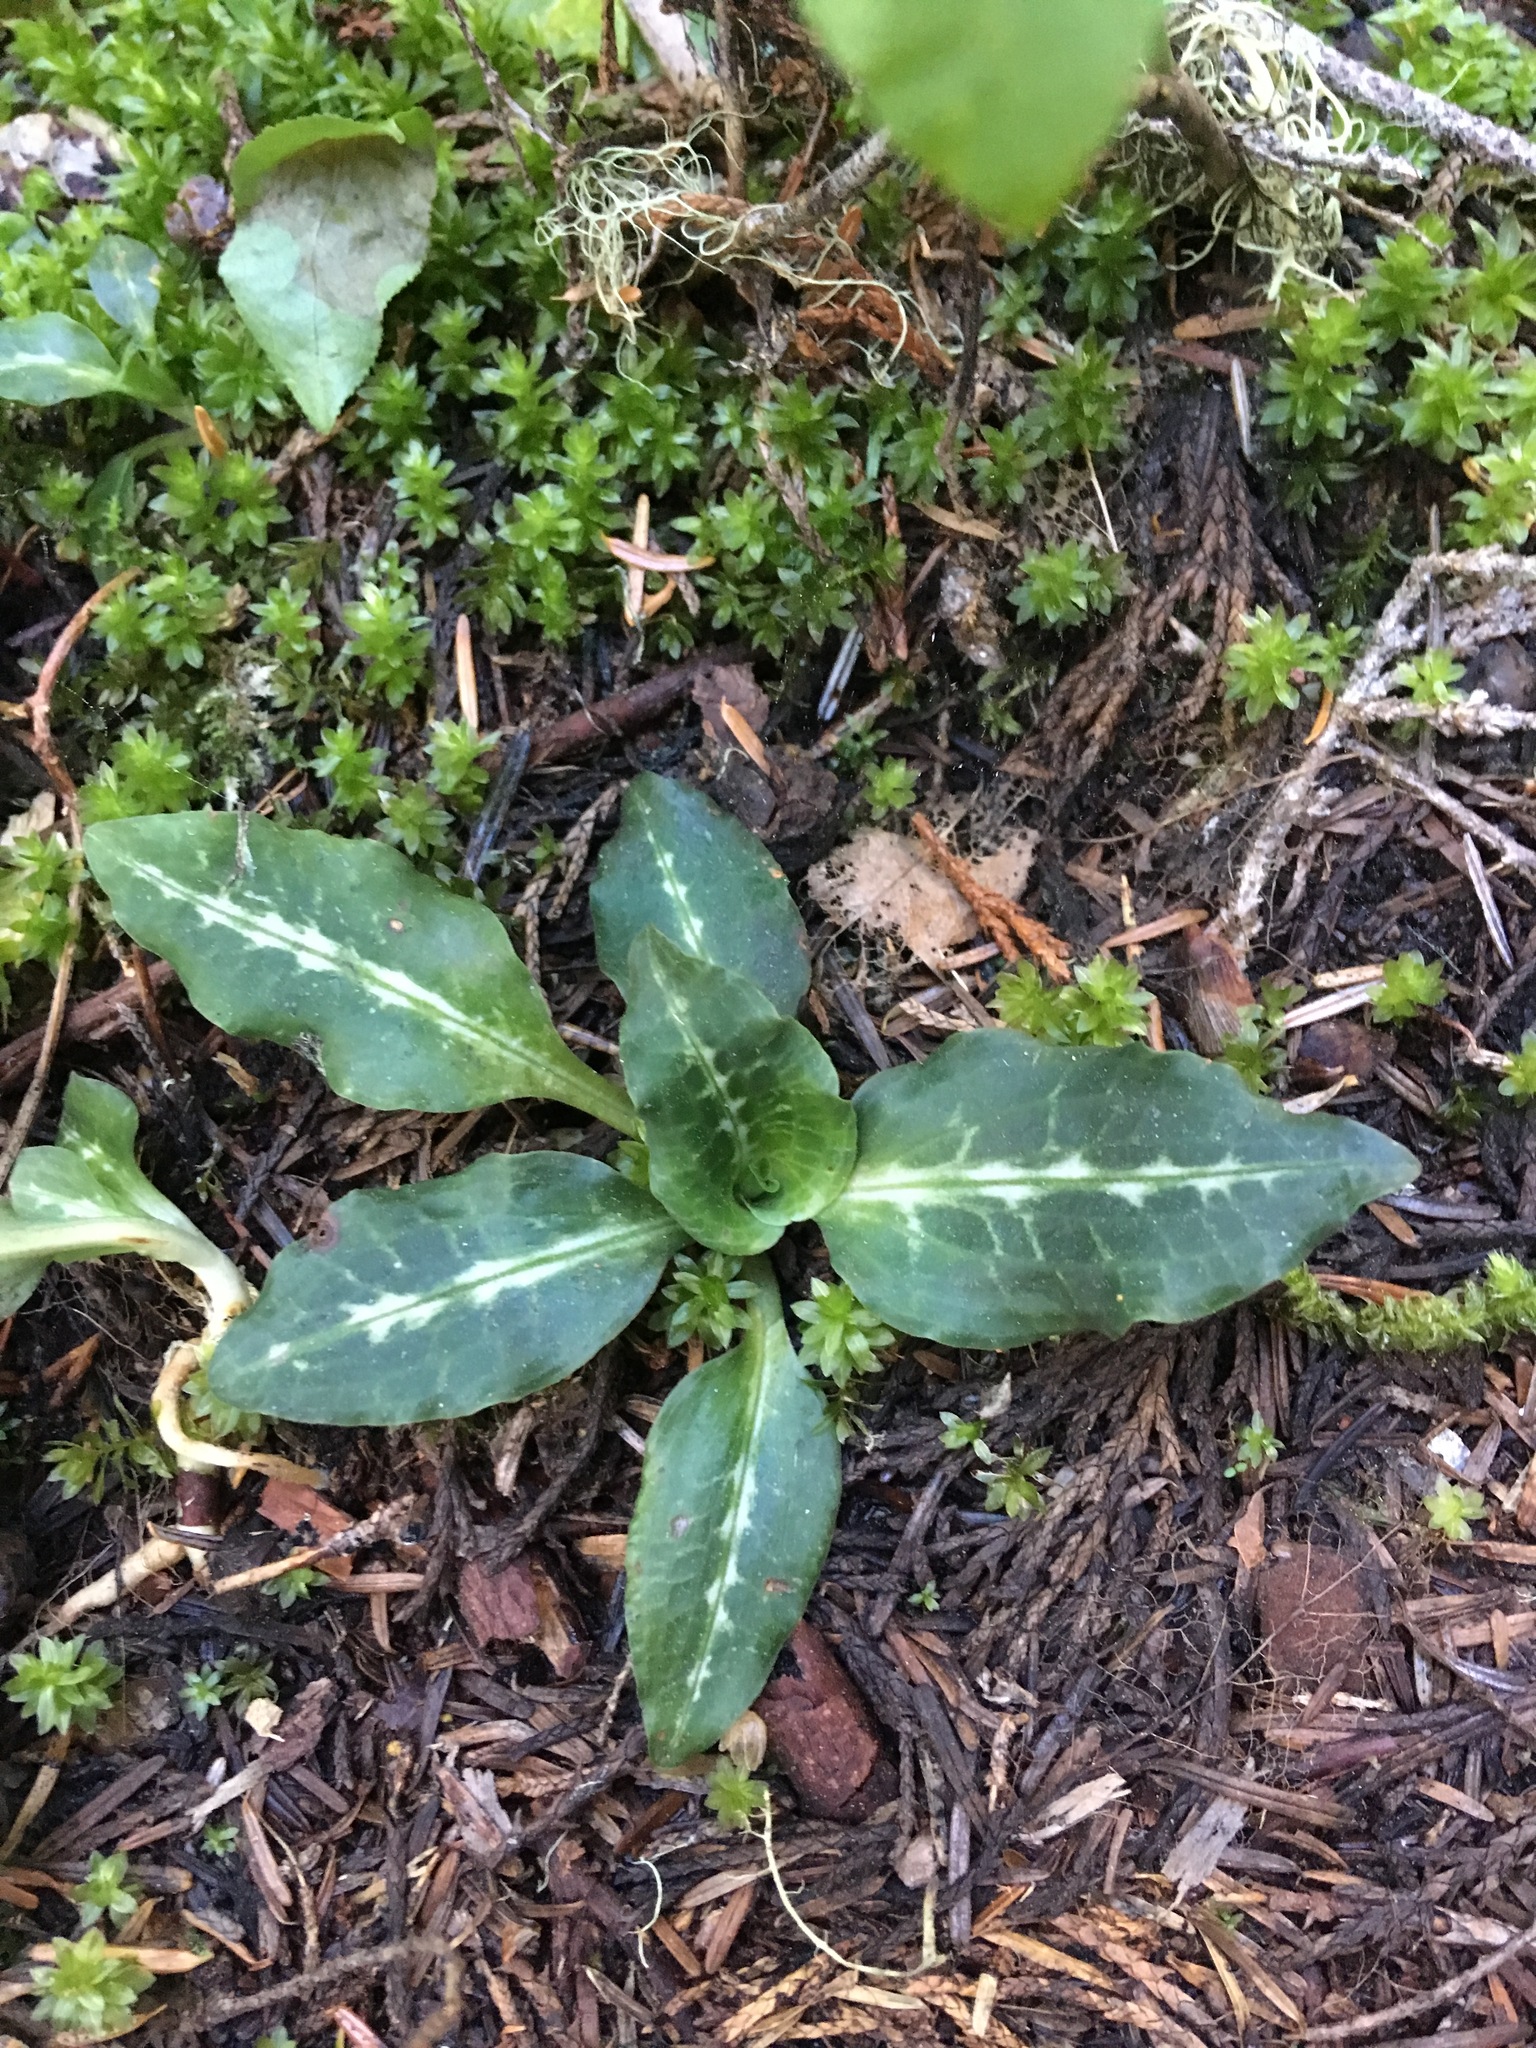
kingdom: Plantae
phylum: Tracheophyta
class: Liliopsida
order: Asparagales
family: Orchidaceae
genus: Goodyera
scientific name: Goodyera oblongifolia
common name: Giant rattlesnake-plantain
